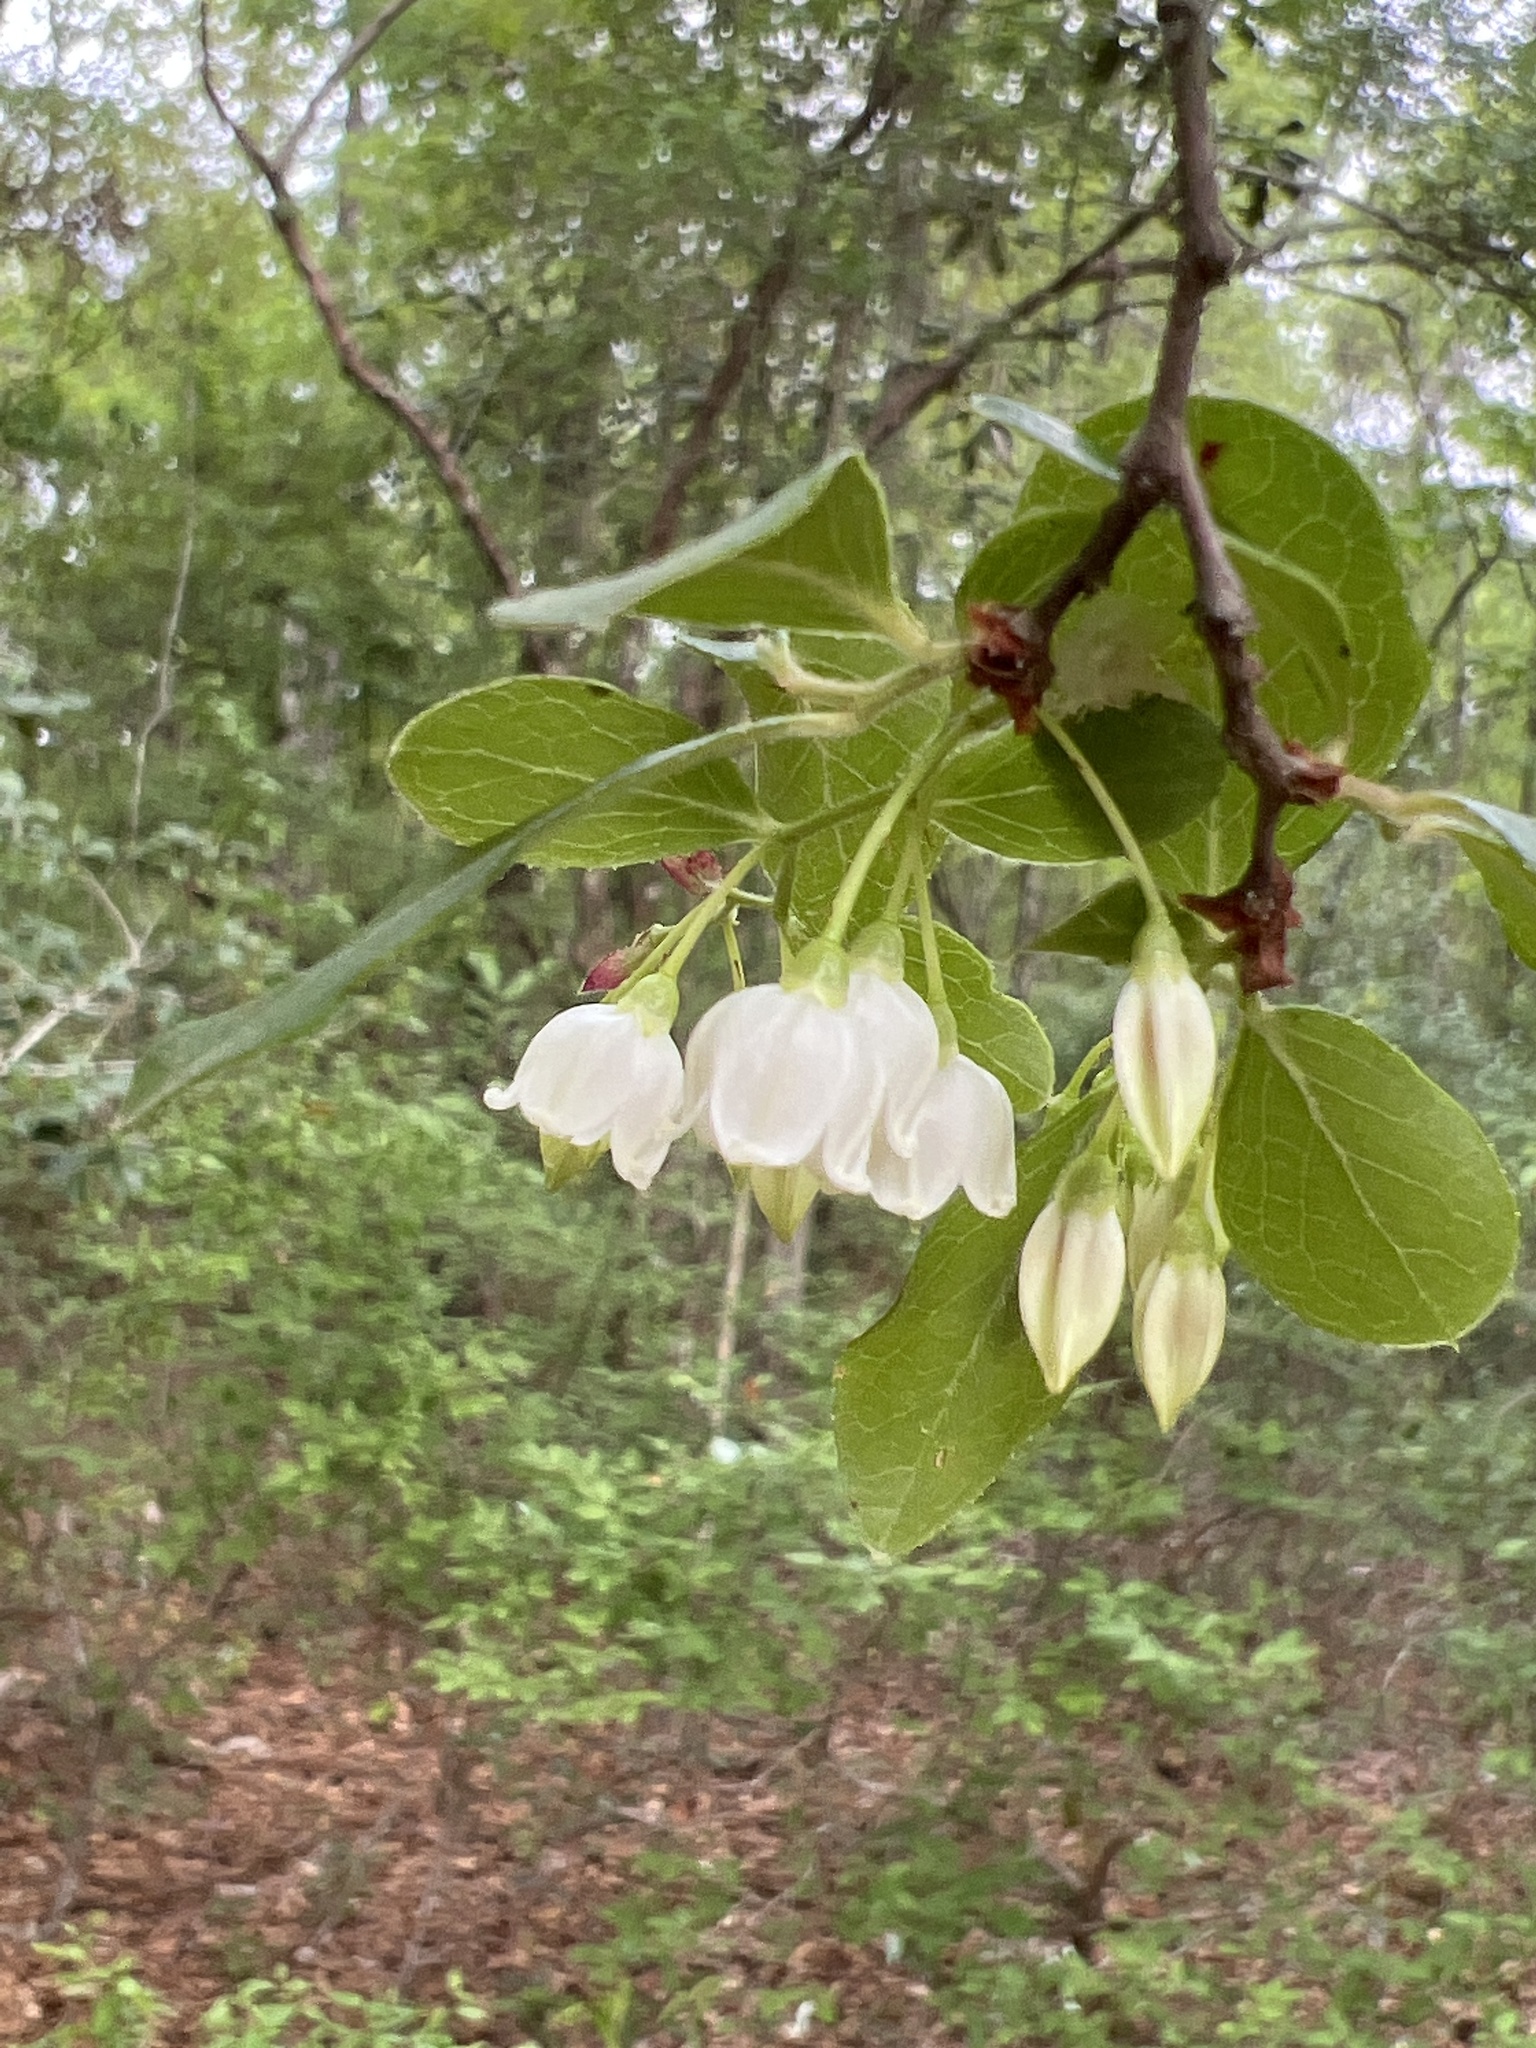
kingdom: Plantae
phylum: Tracheophyta
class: Magnoliopsida
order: Ericales
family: Ericaceae
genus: Vaccinium
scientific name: Vaccinium arboreum
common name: Farkleberry
